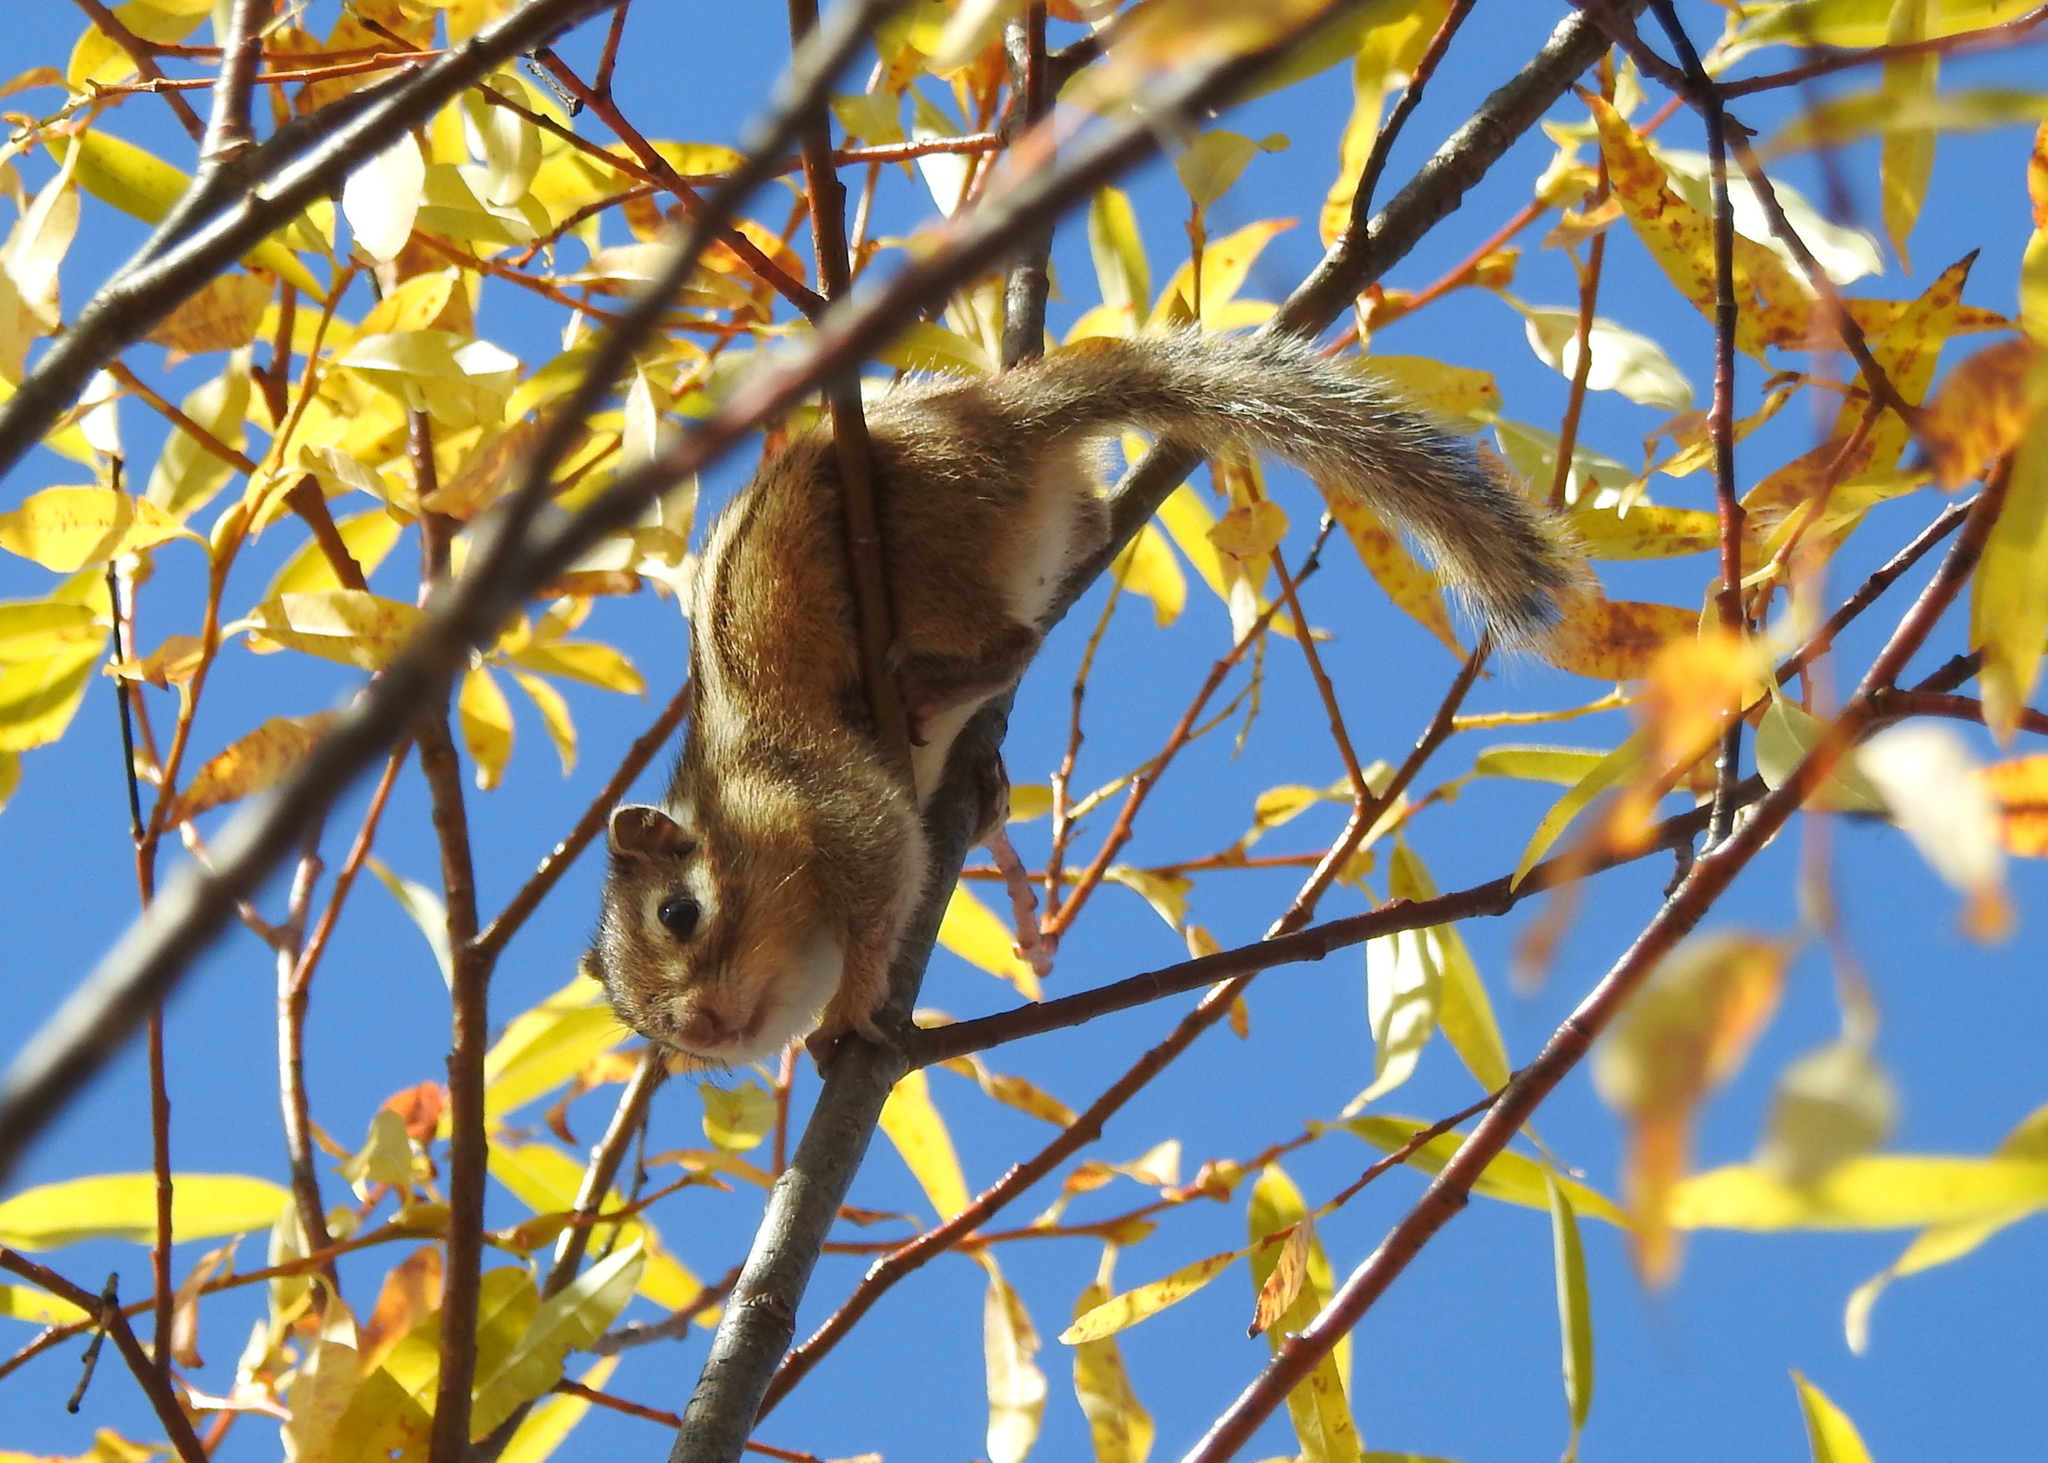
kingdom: Animalia
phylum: Chordata
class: Mammalia
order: Rodentia
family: Sciuridae
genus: Tamias
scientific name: Tamias sibiricus
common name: Siberian chipmunk
